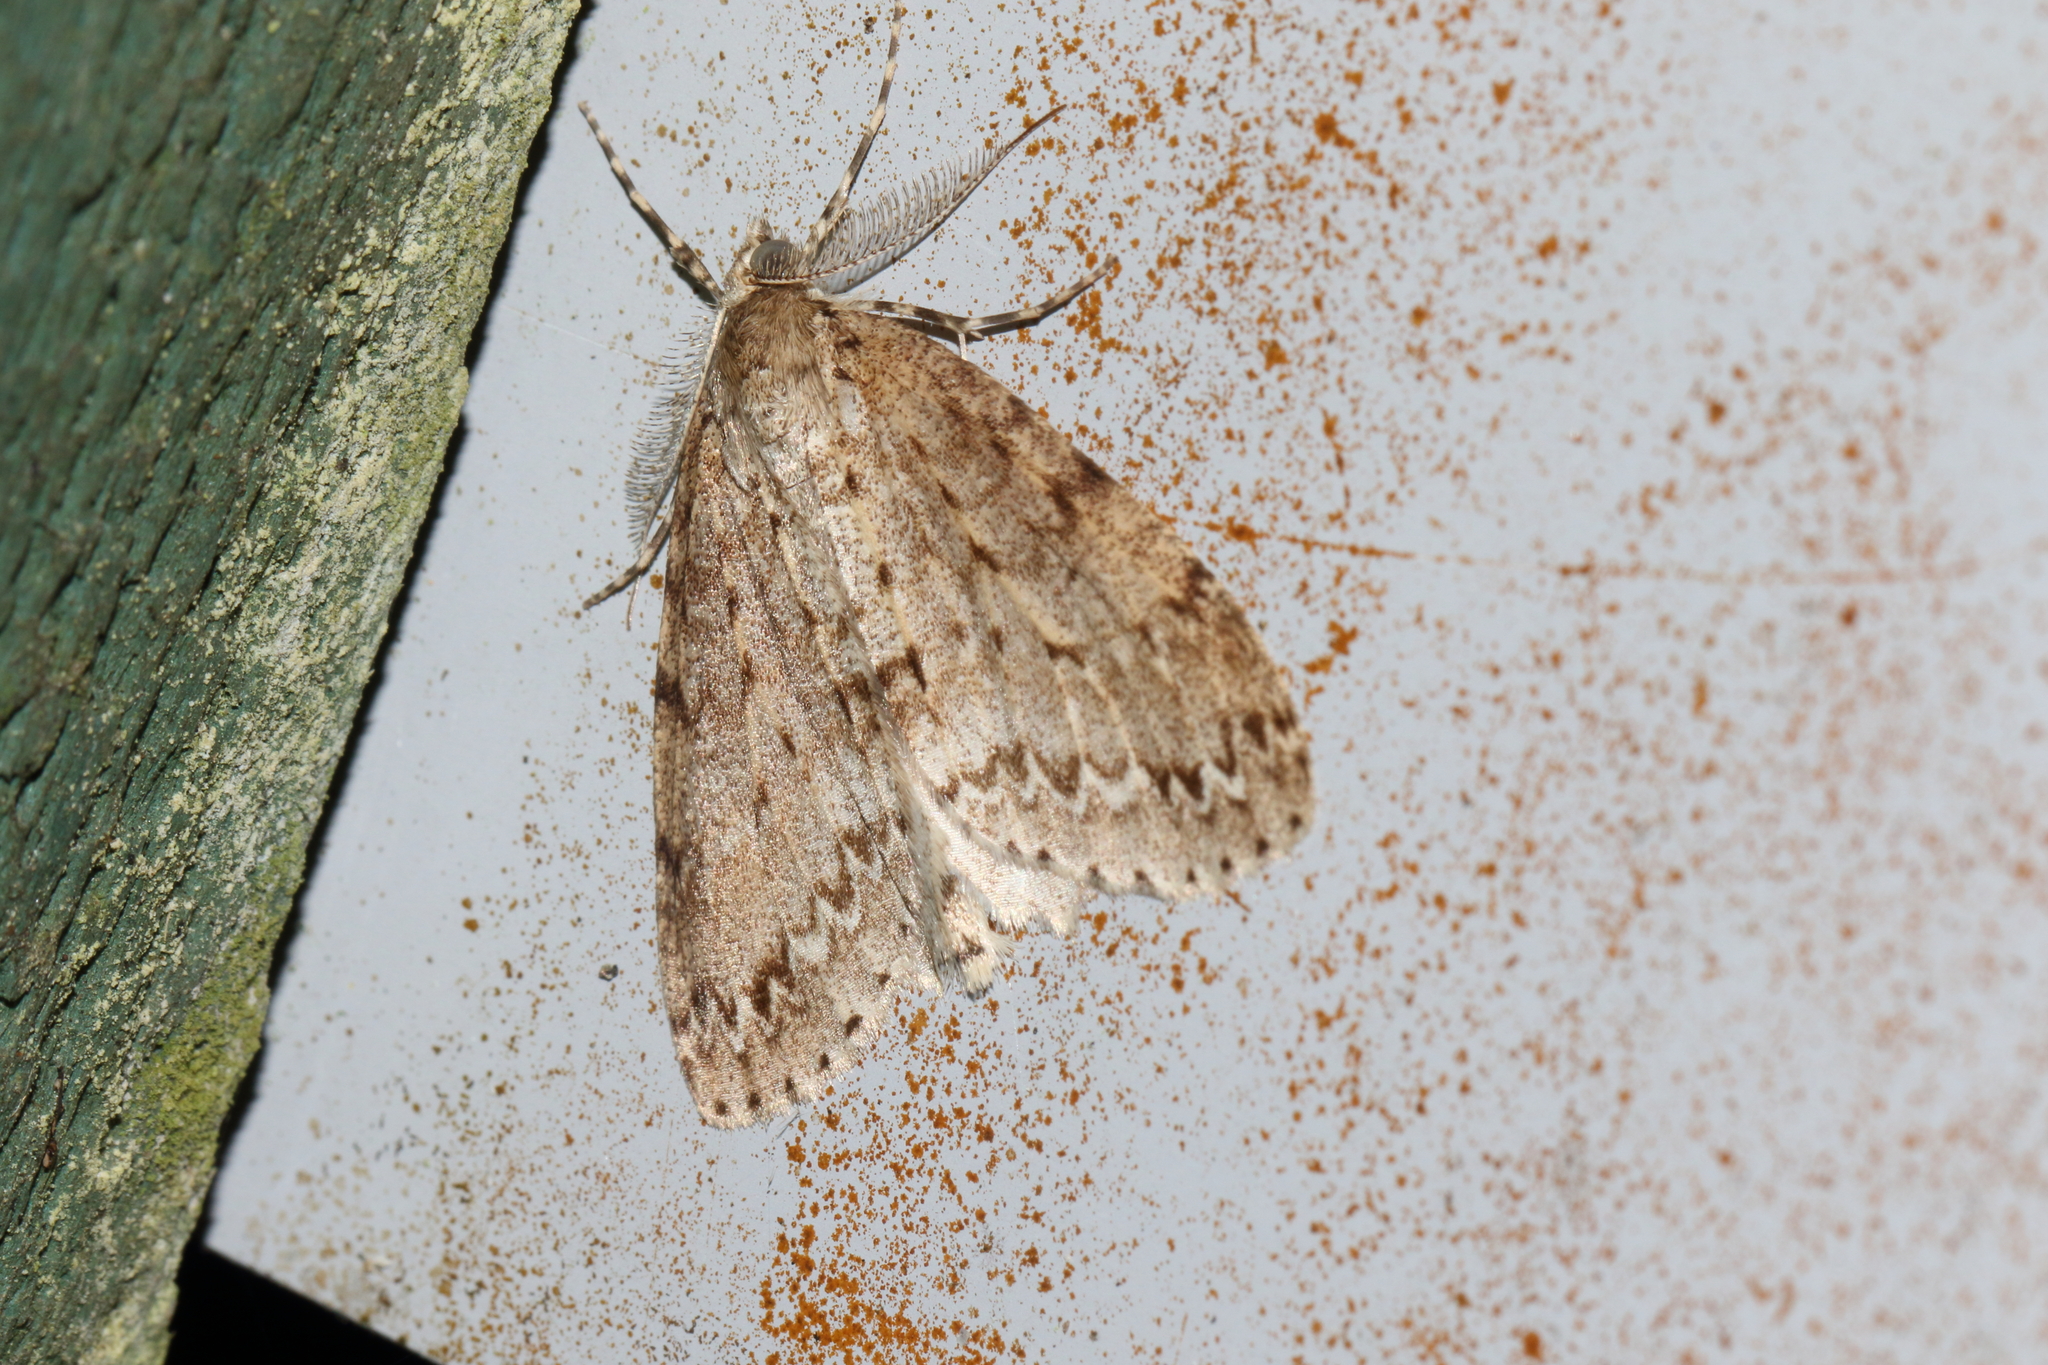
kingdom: Animalia
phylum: Arthropoda
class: Insecta
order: Lepidoptera
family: Geometridae
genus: Pseudocoremia
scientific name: Pseudocoremia fenerata
